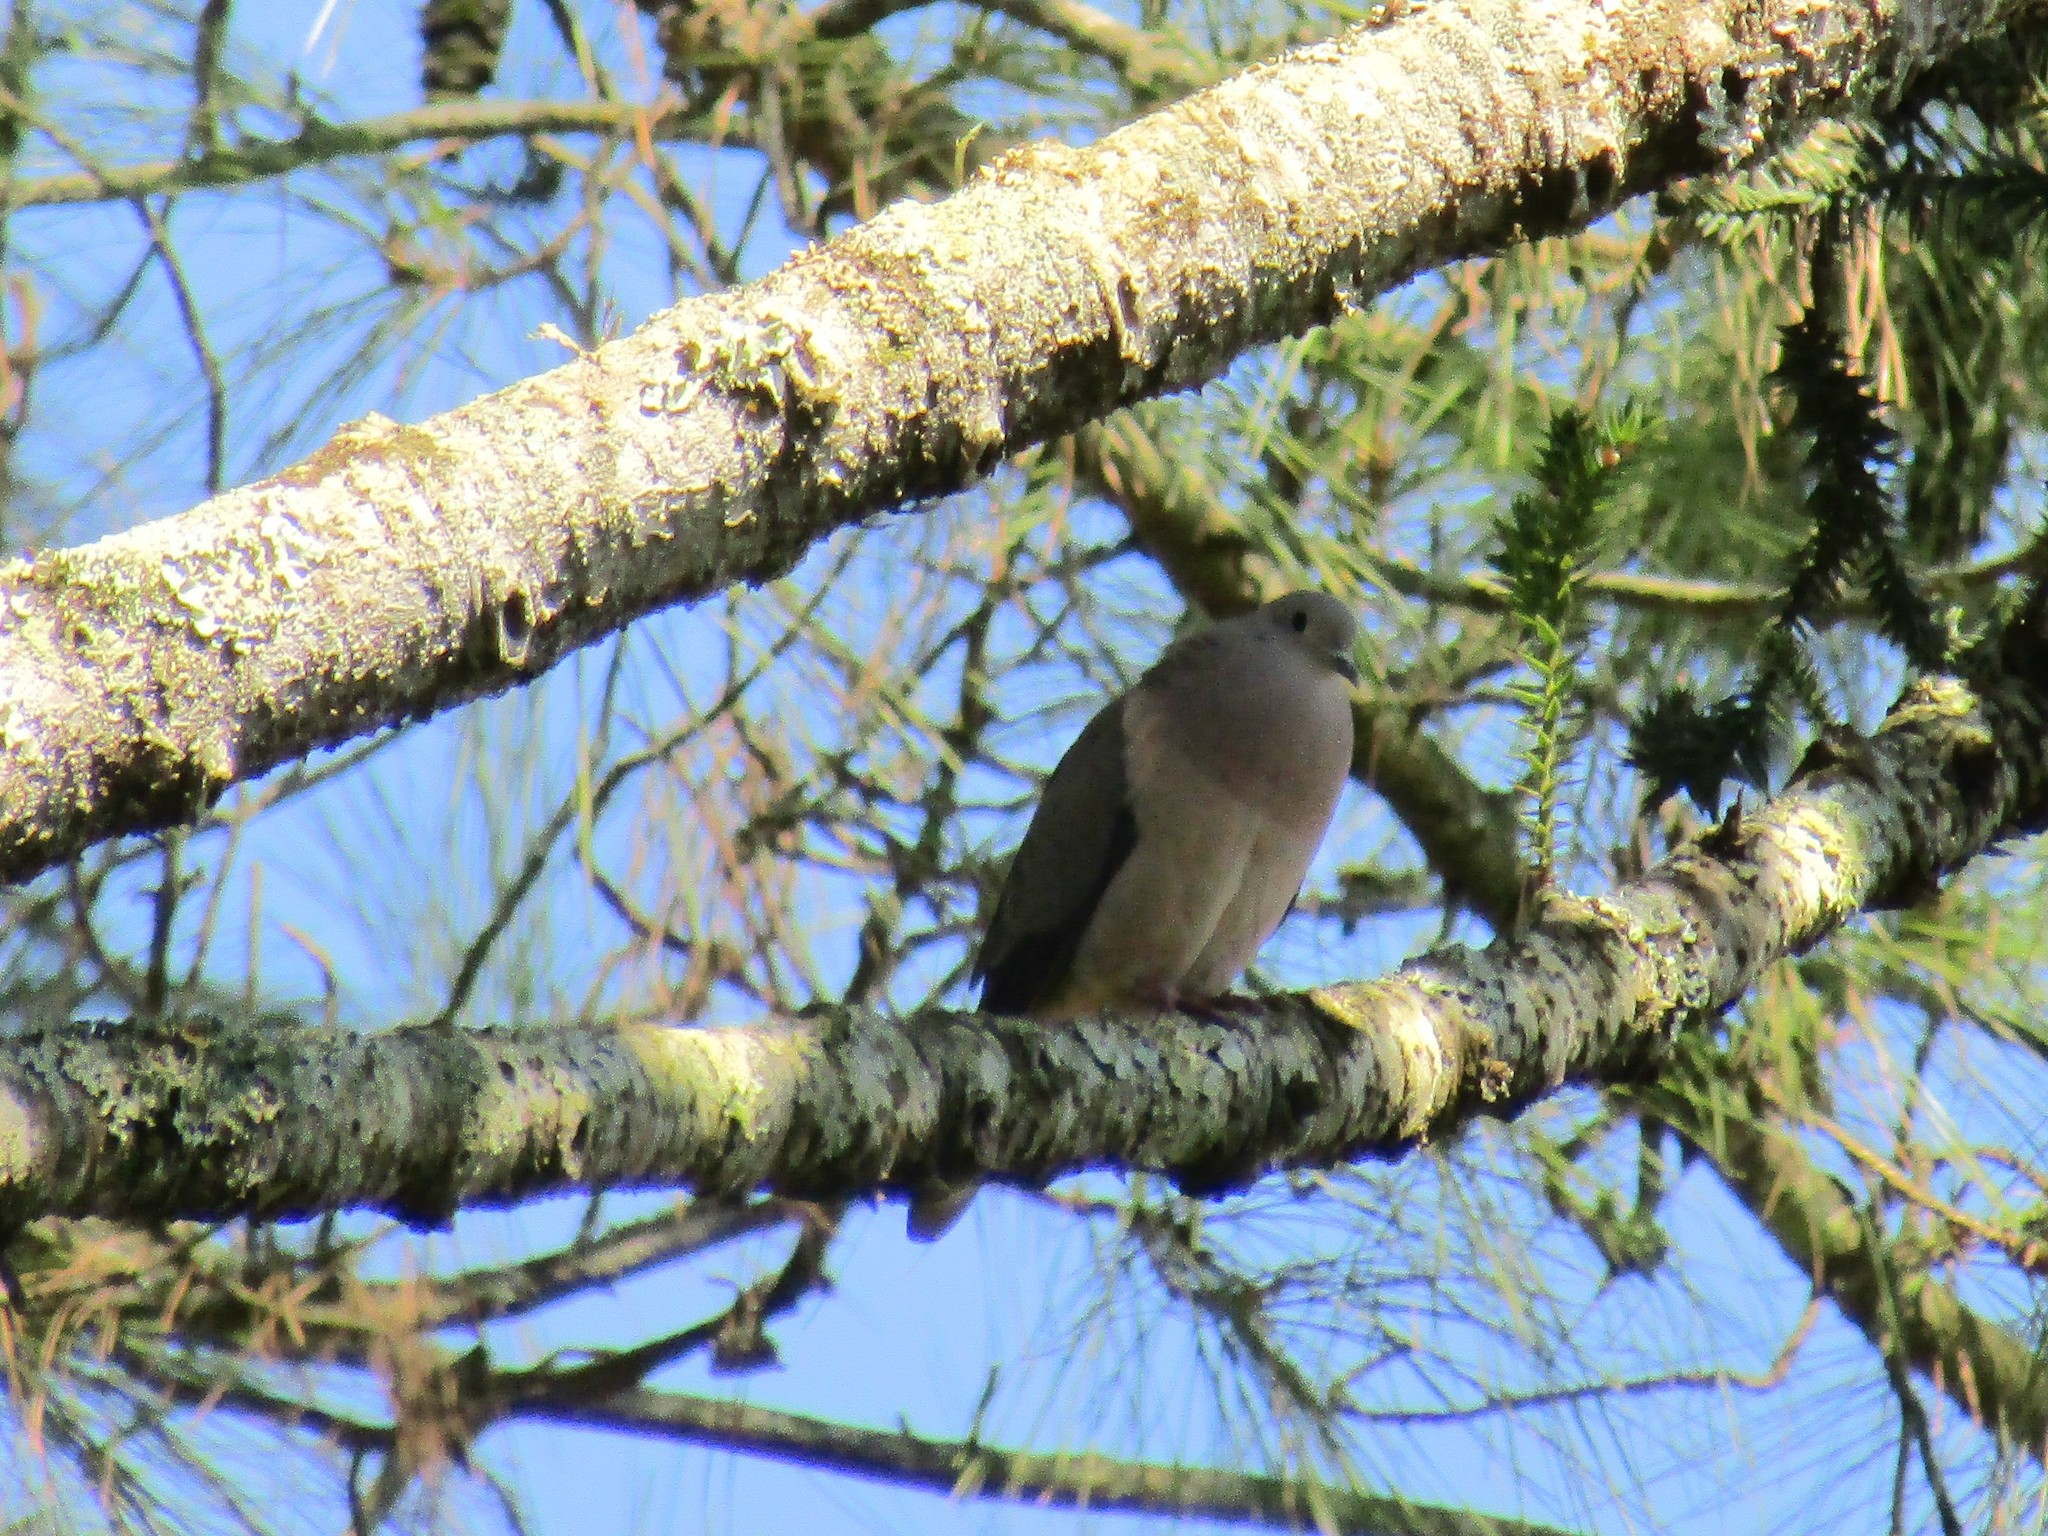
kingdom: Animalia
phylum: Chordata
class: Aves
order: Columbiformes
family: Columbidae
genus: Zenaida
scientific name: Zenaida auriculata
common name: Eared dove
